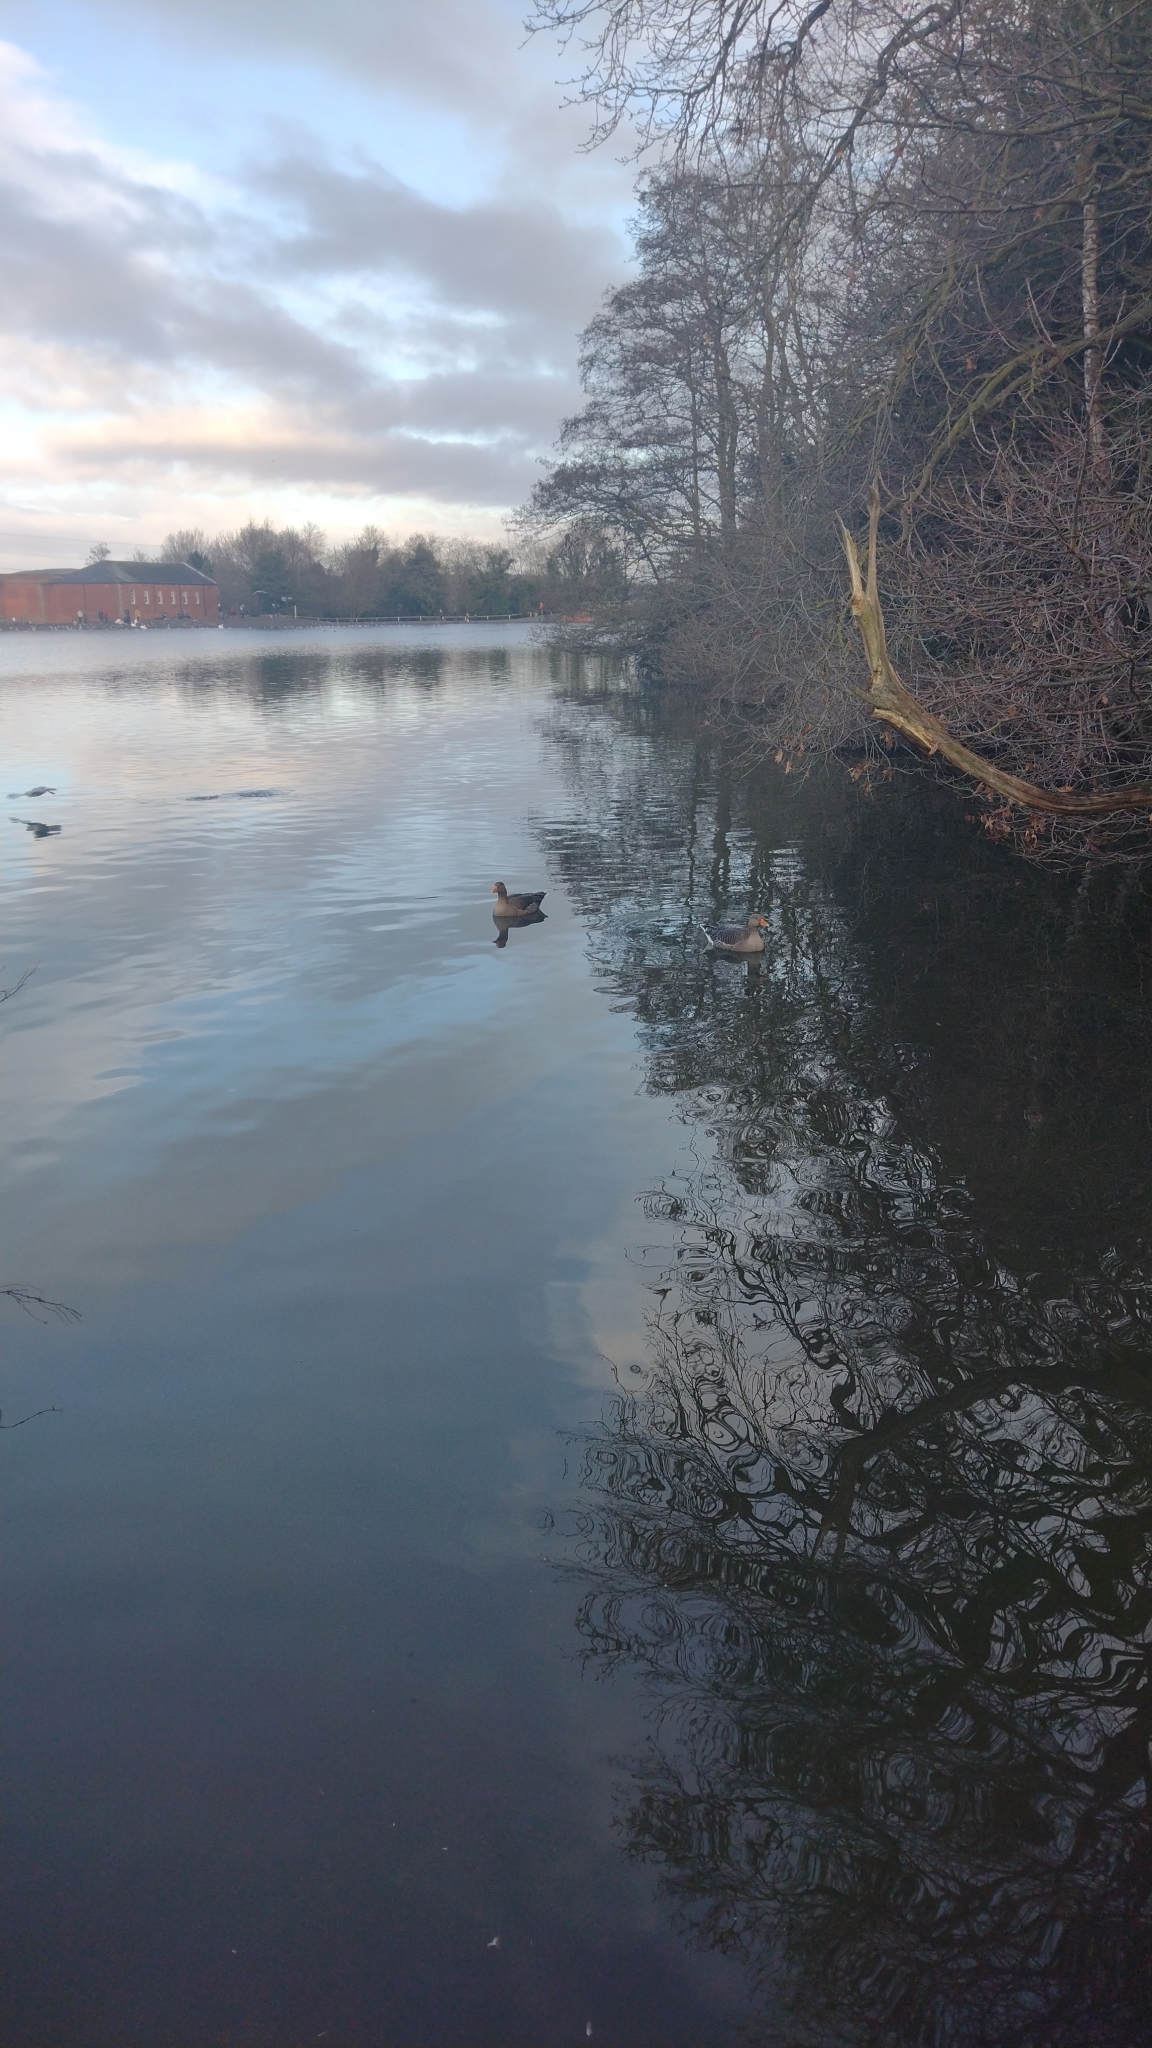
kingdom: Animalia
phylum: Chordata
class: Aves
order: Anseriformes
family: Anatidae
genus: Anser
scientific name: Anser anser
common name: Greylag goose
